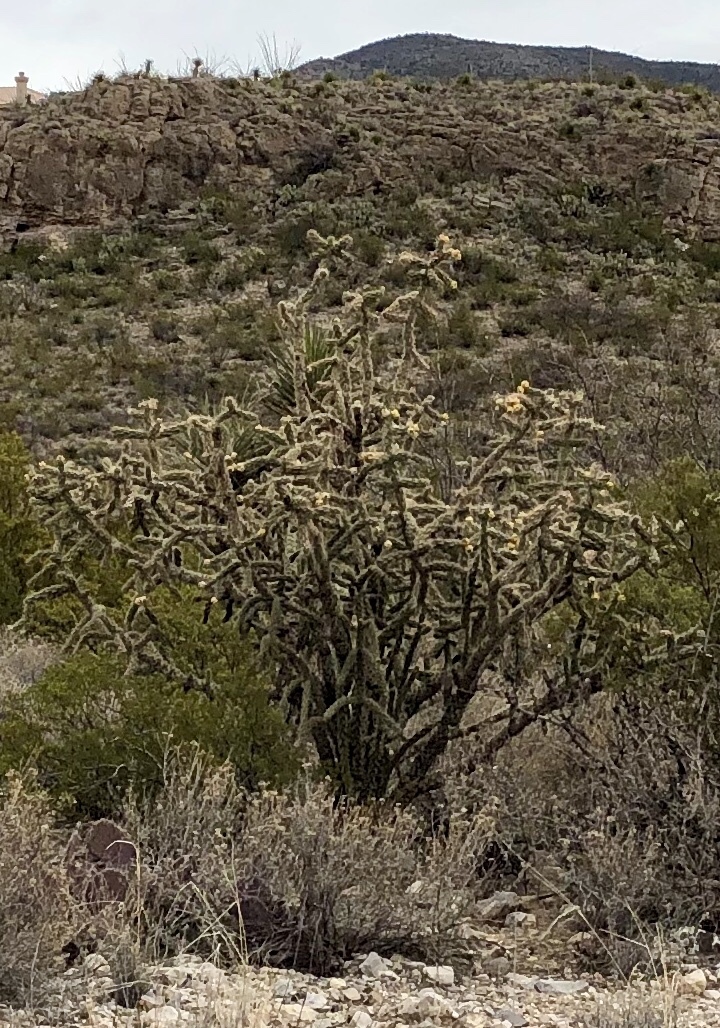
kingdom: Plantae
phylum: Tracheophyta
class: Magnoliopsida
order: Caryophyllales
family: Cactaceae
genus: Cylindropuntia
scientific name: Cylindropuntia imbricata
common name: Candelabrum cactus
